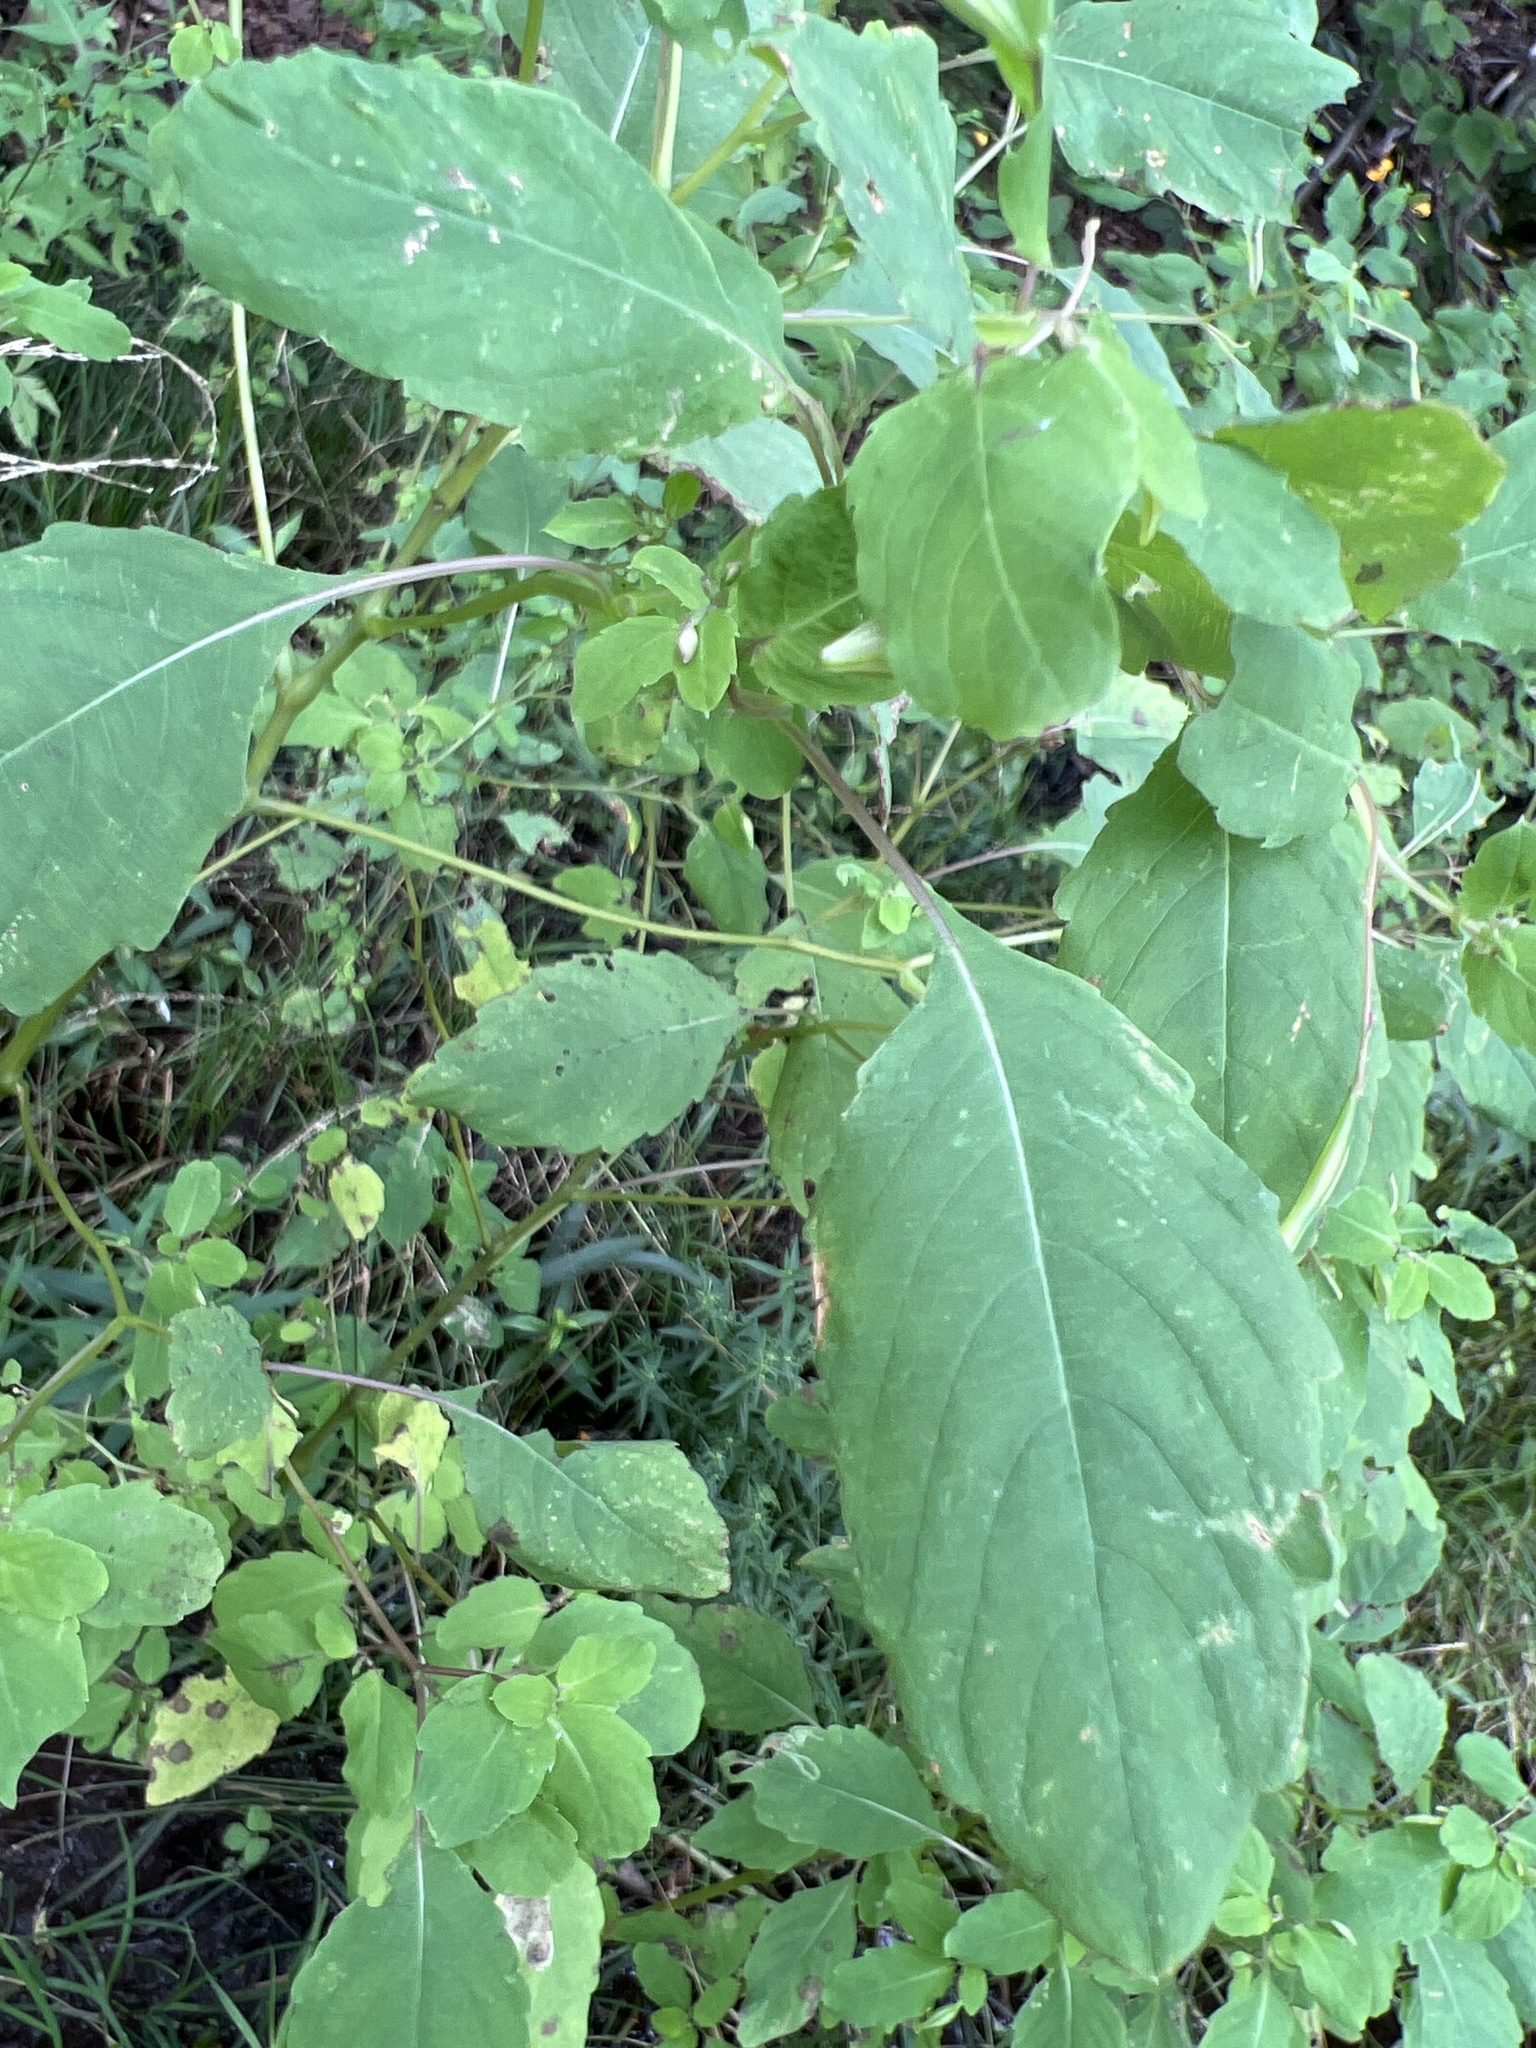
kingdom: Plantae
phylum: Tracheophyta
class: Magnoliopsida
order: Ericales
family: Balsaminaceae
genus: Impatiens
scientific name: Impatiens capensis
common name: Orange balsam
